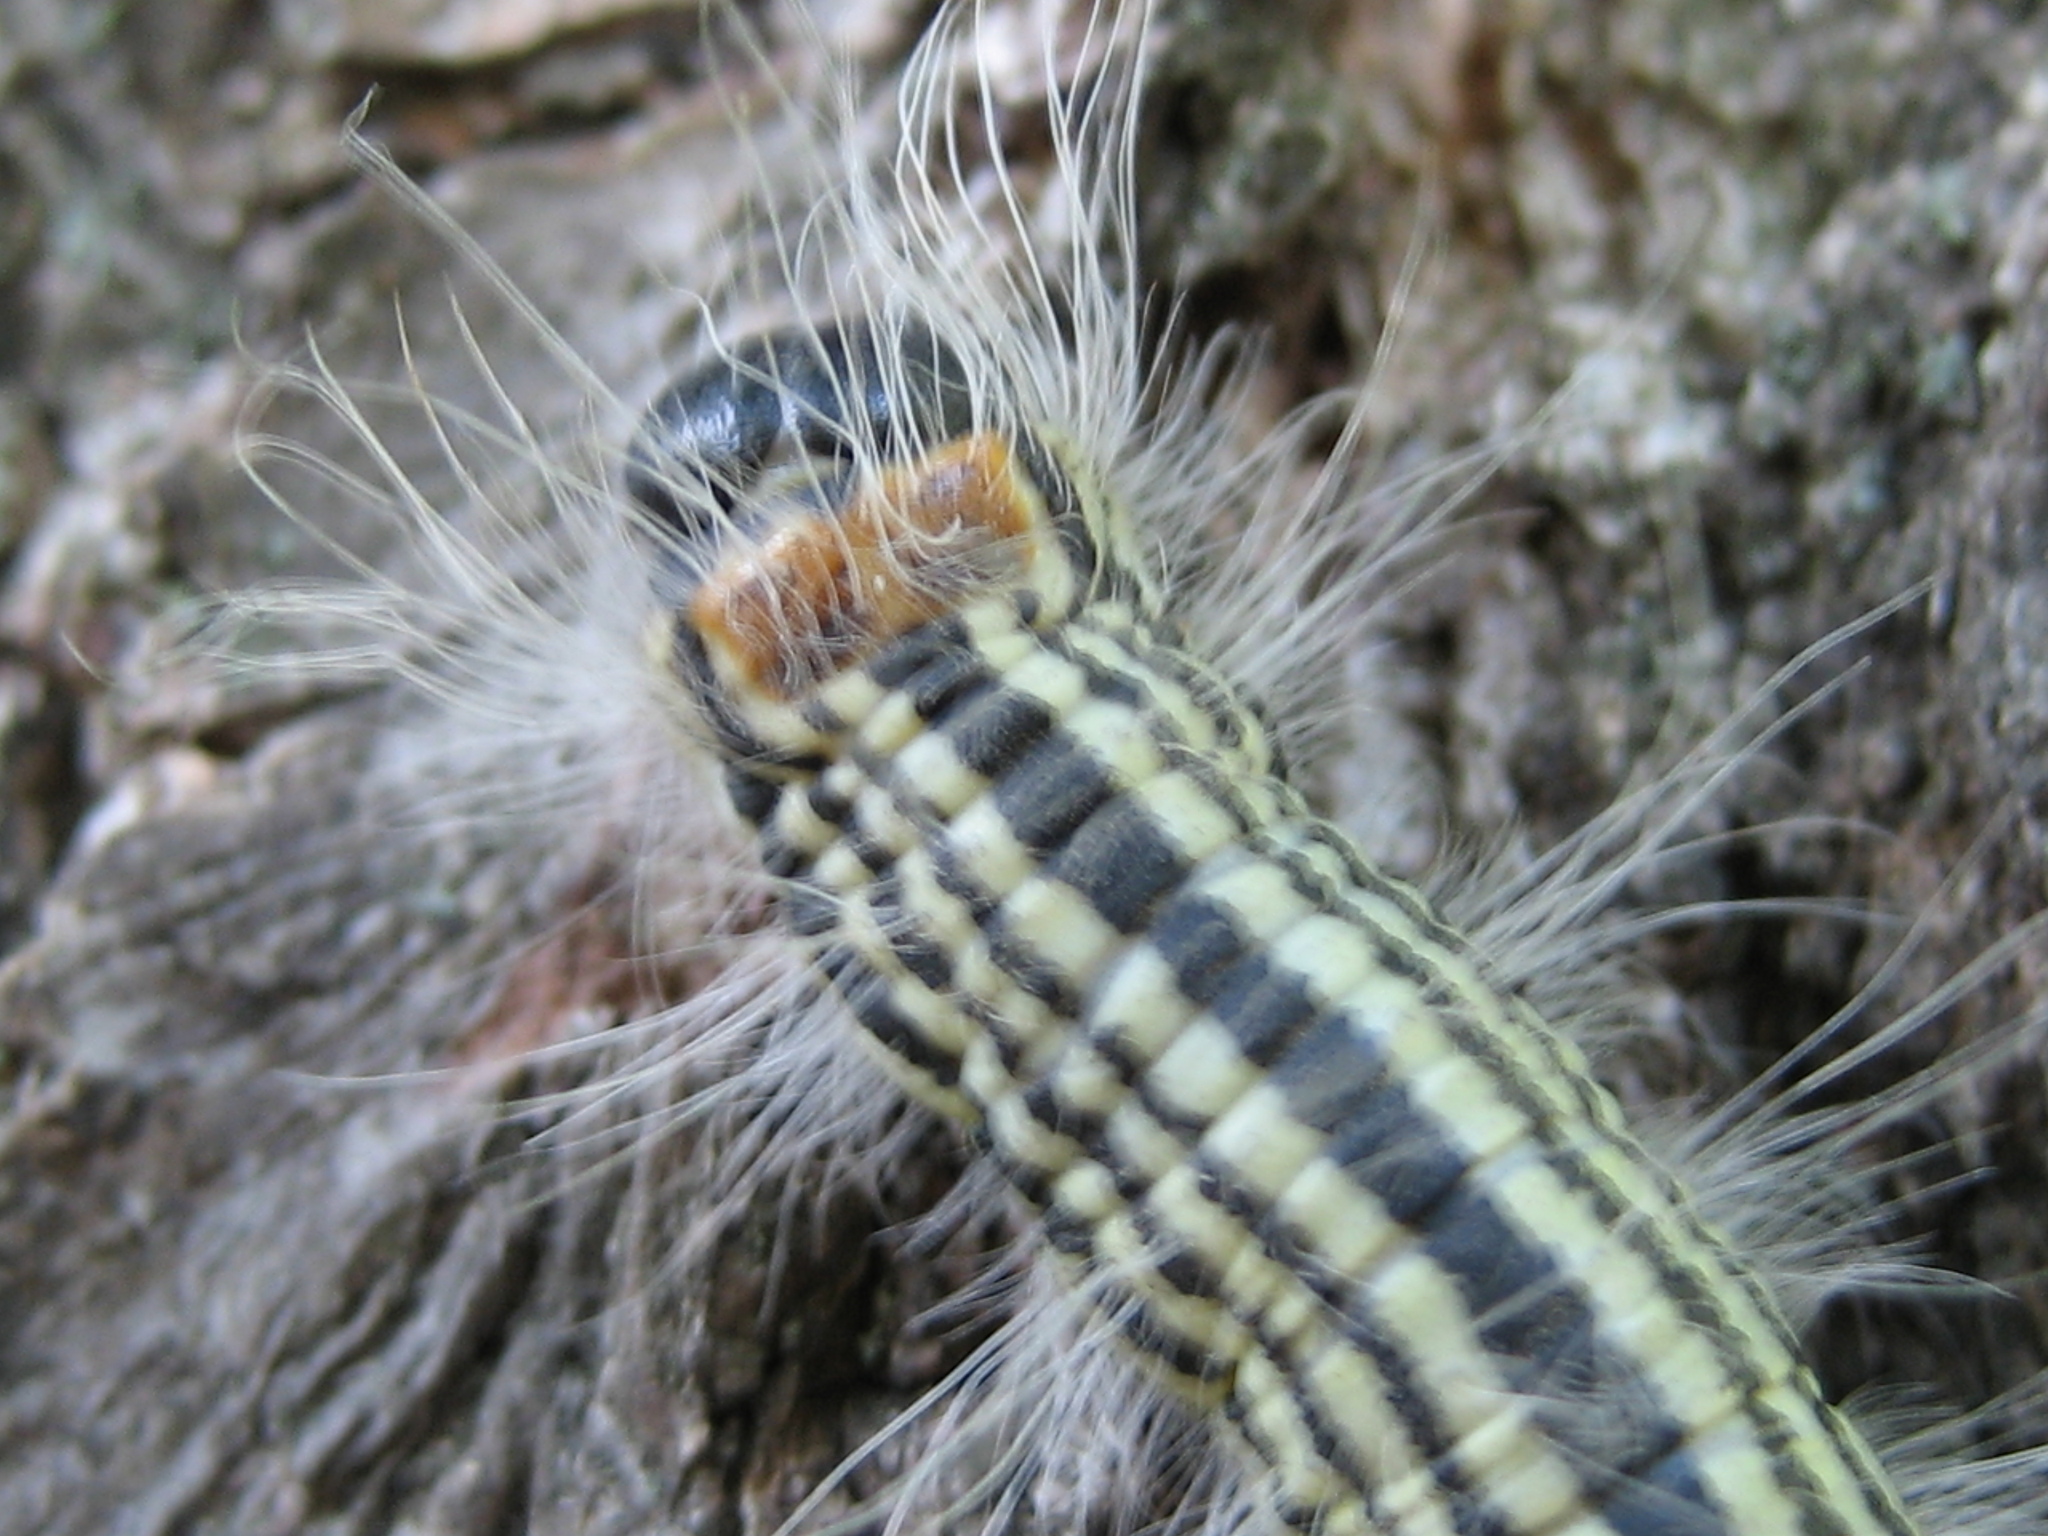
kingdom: Animalia
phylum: Arthropoda
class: Insecta
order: Lepidoptera
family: Notodontidae
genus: Datana
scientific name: Datana contracta
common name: Contracted datana
